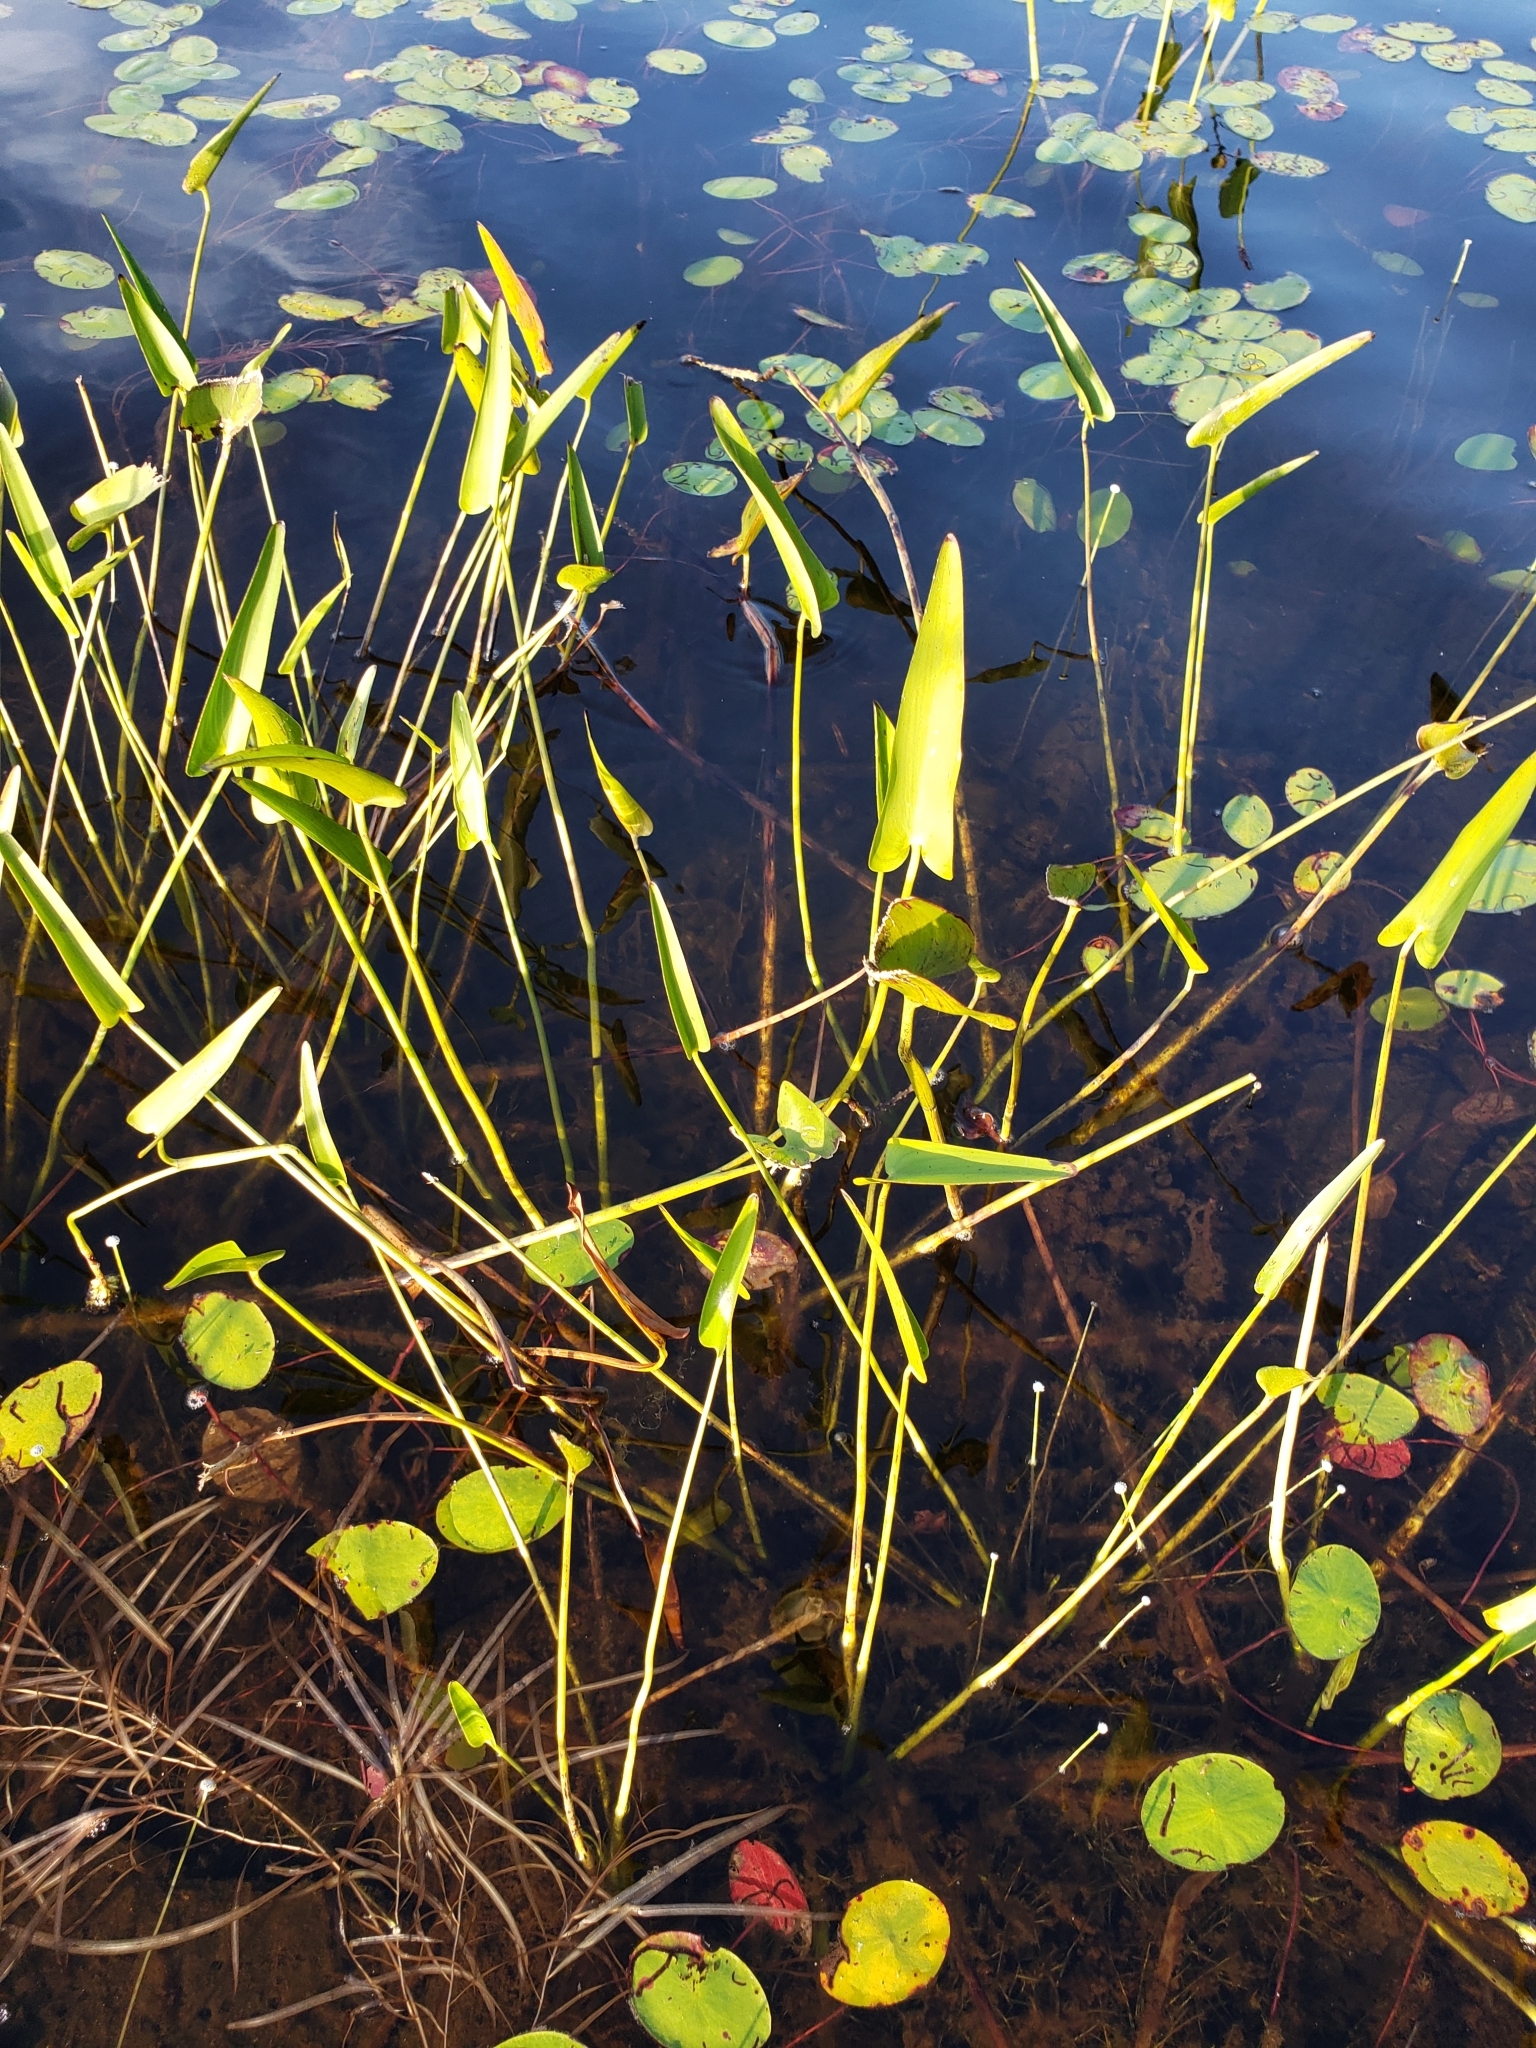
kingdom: Plantae
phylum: Tracheophyta
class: Liliopsida
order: Commelinales
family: Pontederiaceae
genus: Pontederia
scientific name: Pontederia cordata
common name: Pickerelweed
